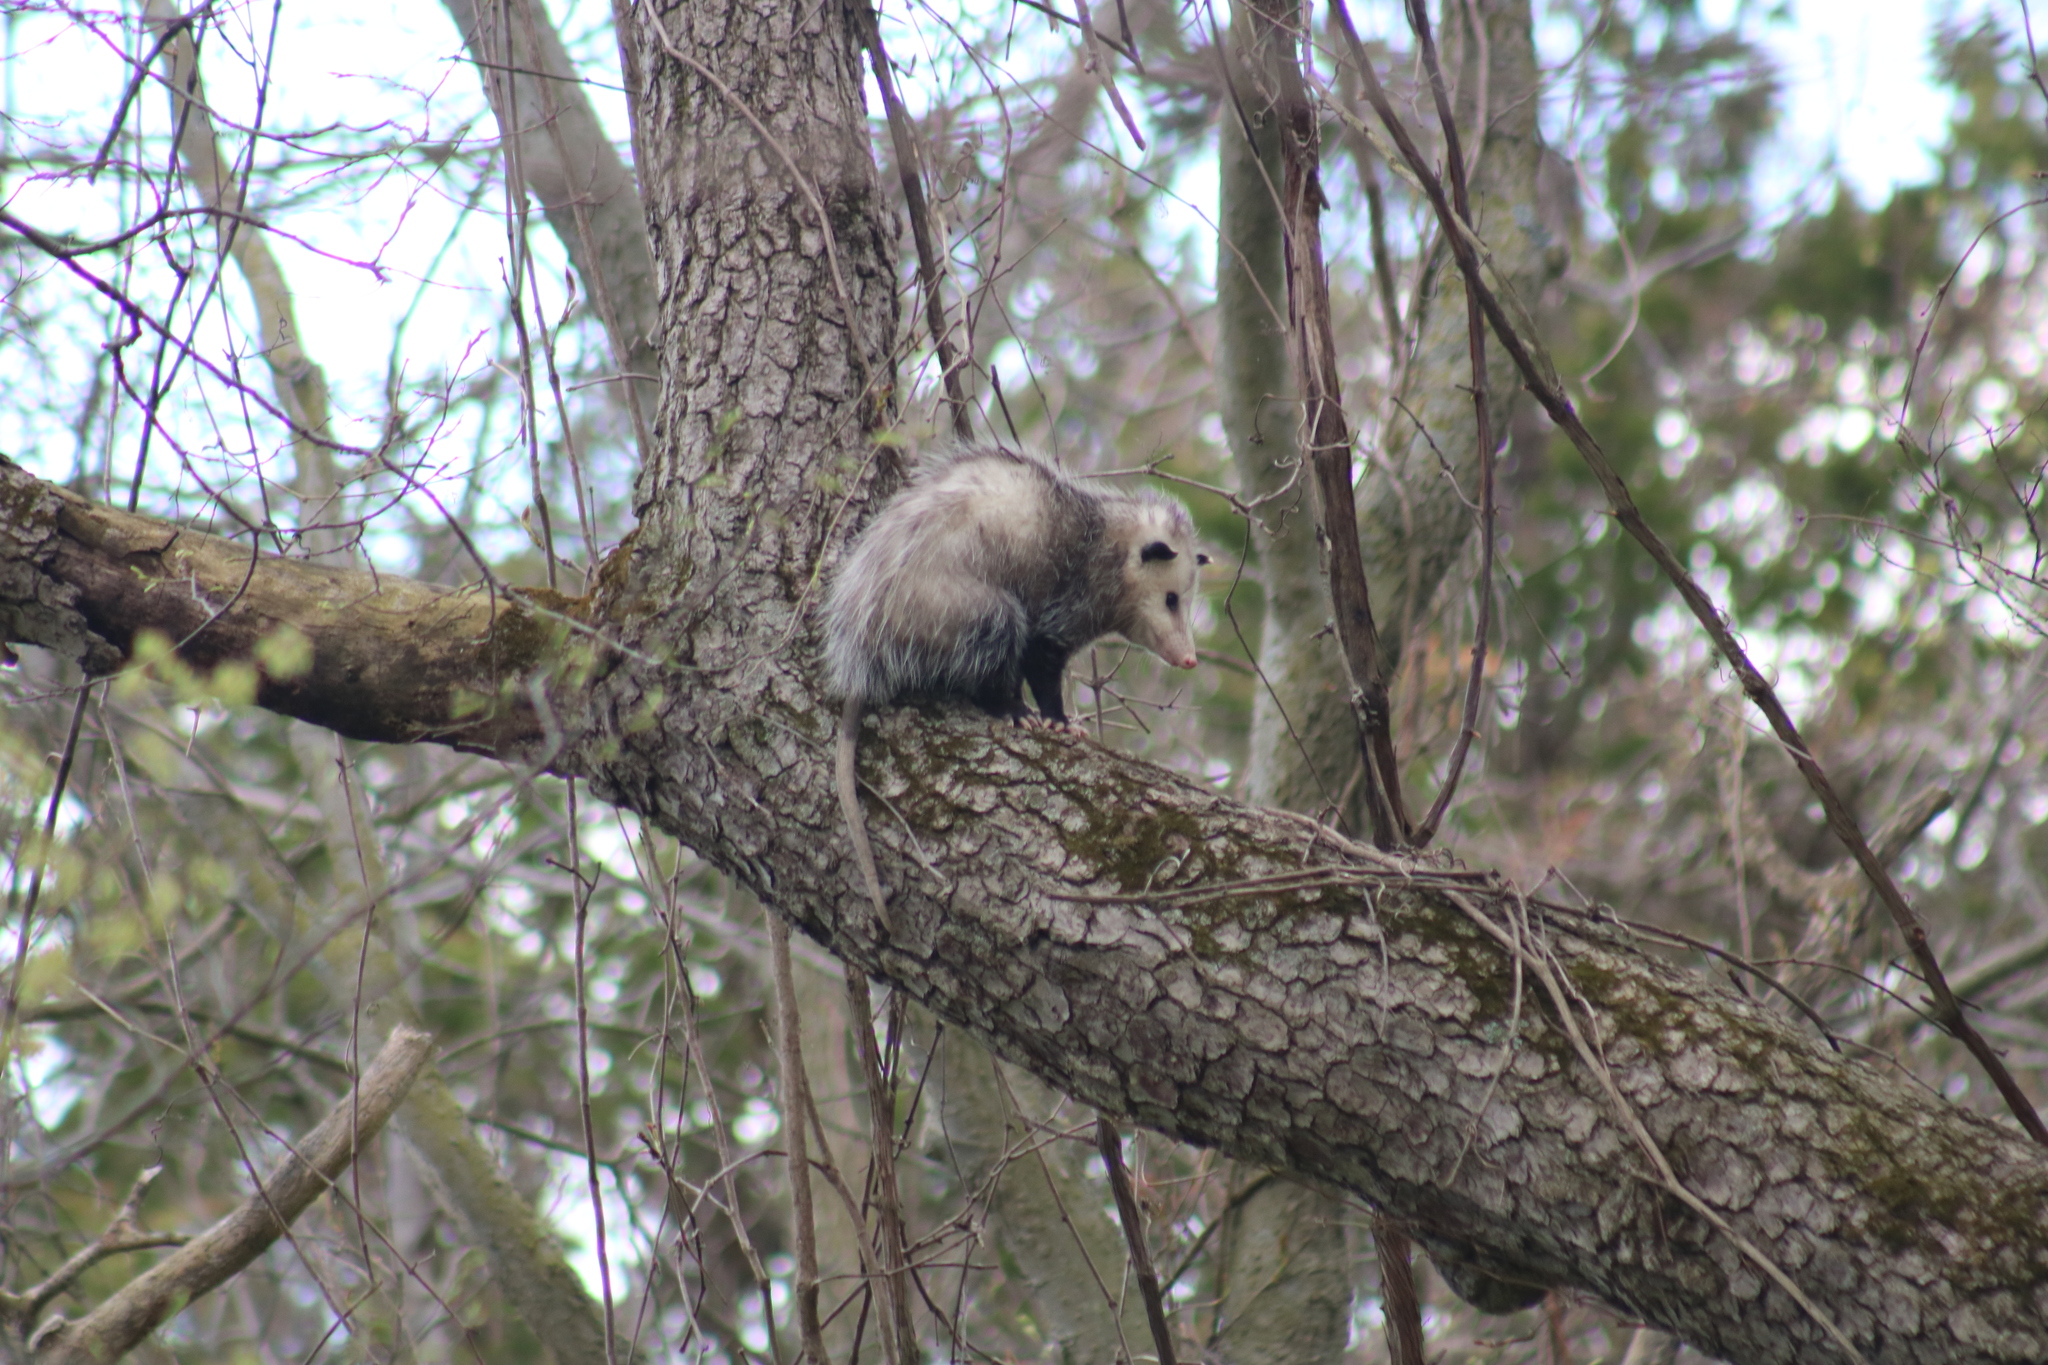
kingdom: Animalia
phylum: Chordata
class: Mammalia
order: Didelphimorphia
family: Didelphidae
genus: Didelphis
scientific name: Didelphis virginiana
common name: Virginia opossum
